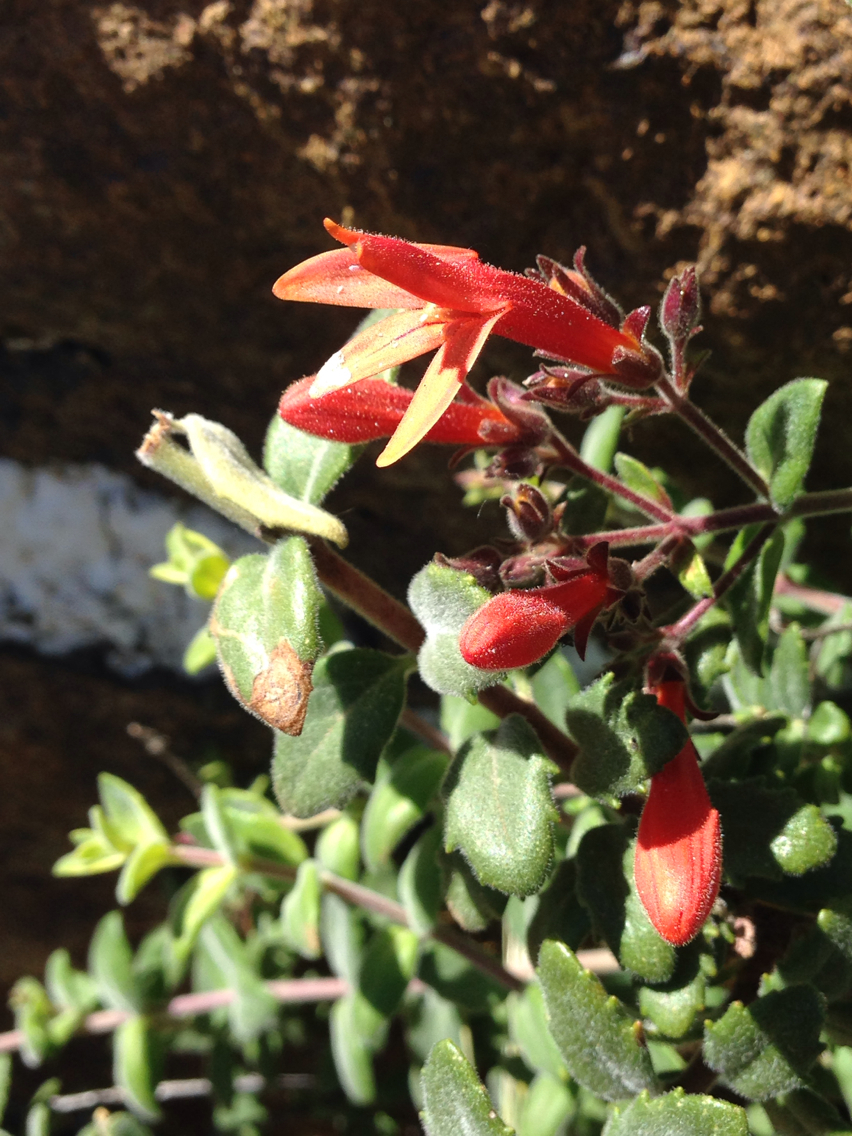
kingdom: Plantae
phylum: Tracheophyta
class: Magnoliopsida
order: Lamiales
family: Plantaginaceae
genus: Keckiella
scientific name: Keckiella corymbosa
